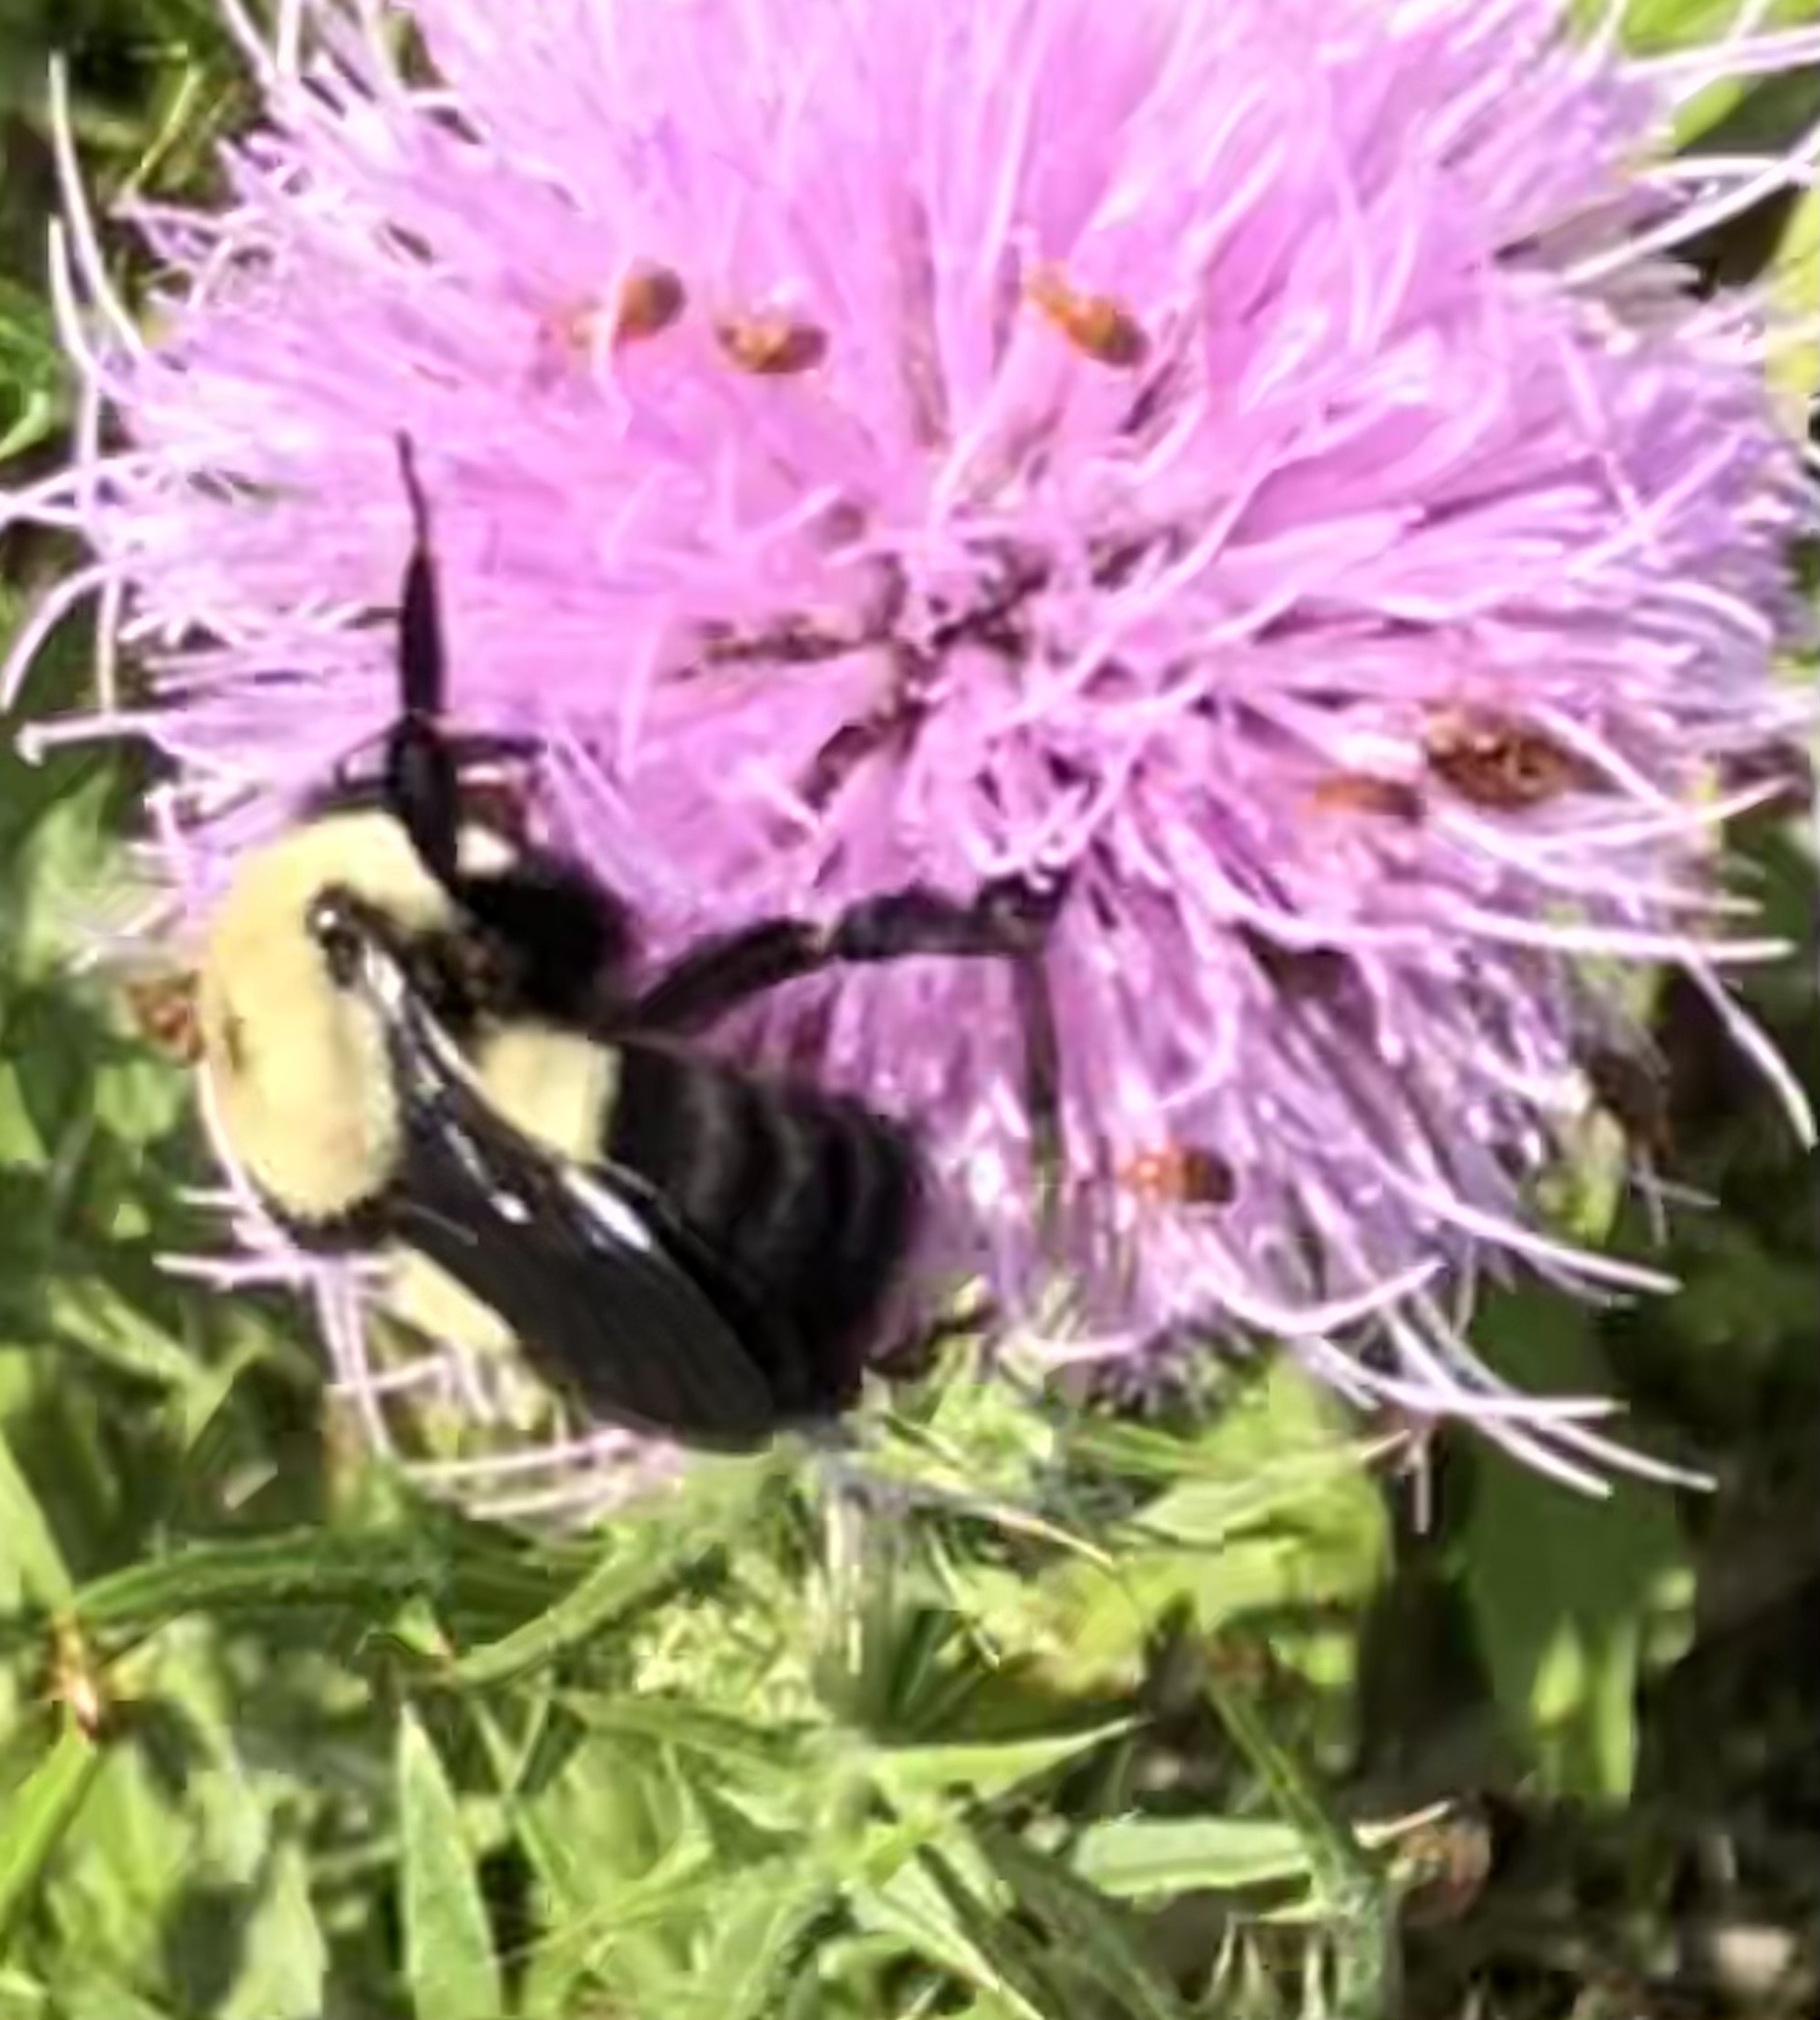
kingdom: Animalia
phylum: Arthropoda
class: Insecta
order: Hymenoptera
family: Apidae
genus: Bombus
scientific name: Bombus griseocollis
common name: Brown-belted bumble bee
